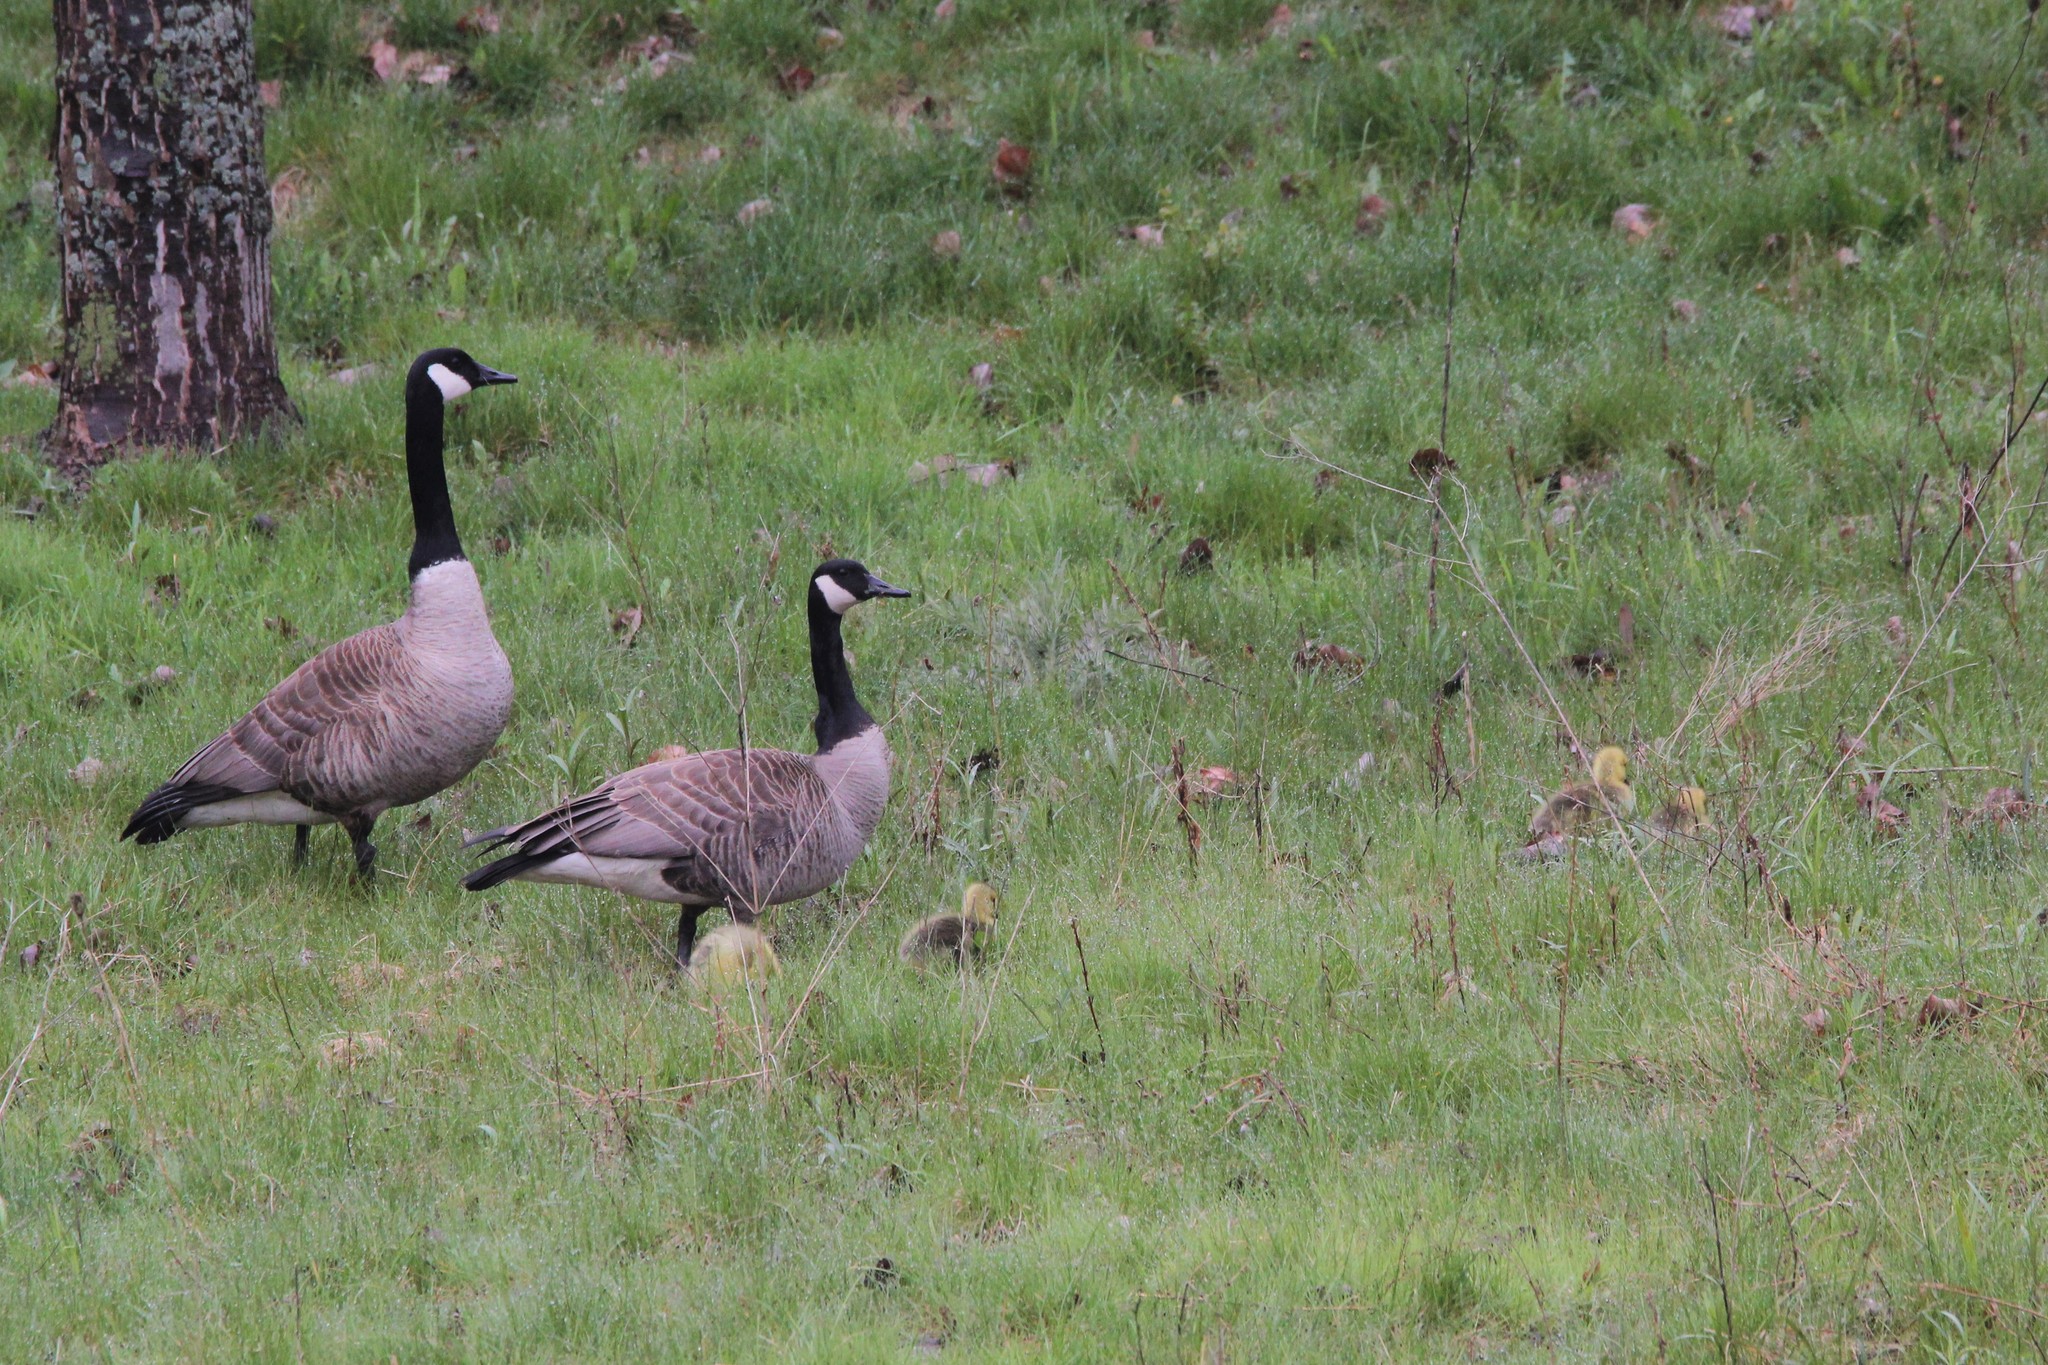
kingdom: Animalia
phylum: Chordata
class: Aves
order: Anseriformes
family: Anatidae
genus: Branta
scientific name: Branta canadensis
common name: Canada goose
